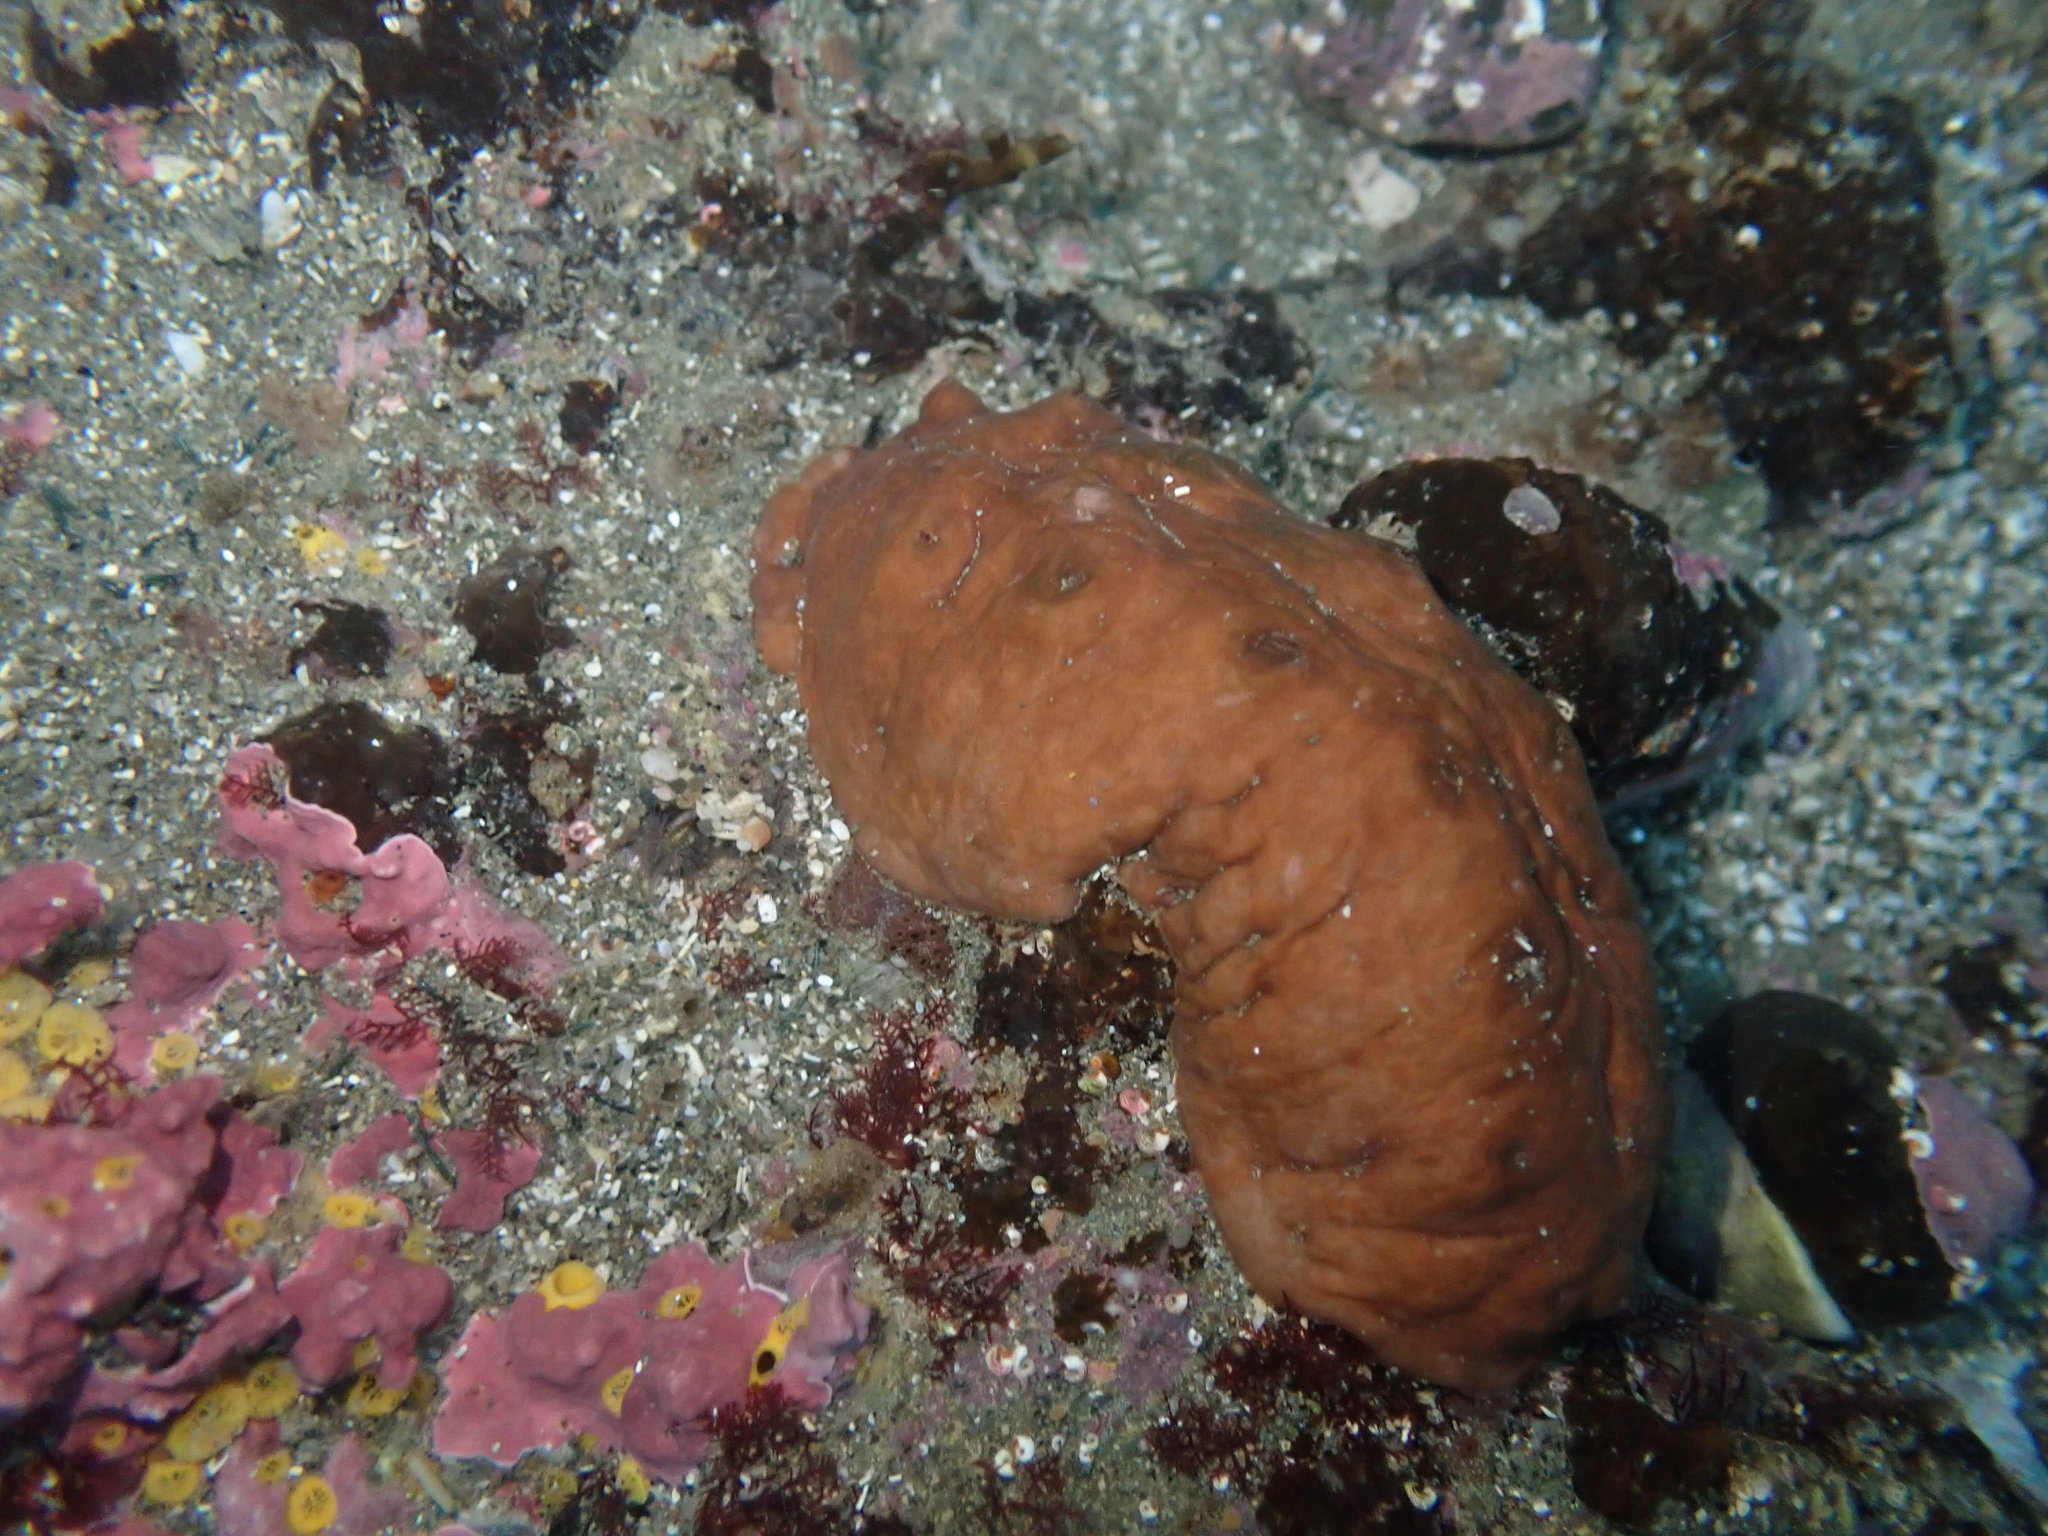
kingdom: Animalia
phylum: Mollusca
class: Polyplacophora
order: Chitonida
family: Acanthochitonidae
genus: Cryptoconchus
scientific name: Cryptoconchus porosus
